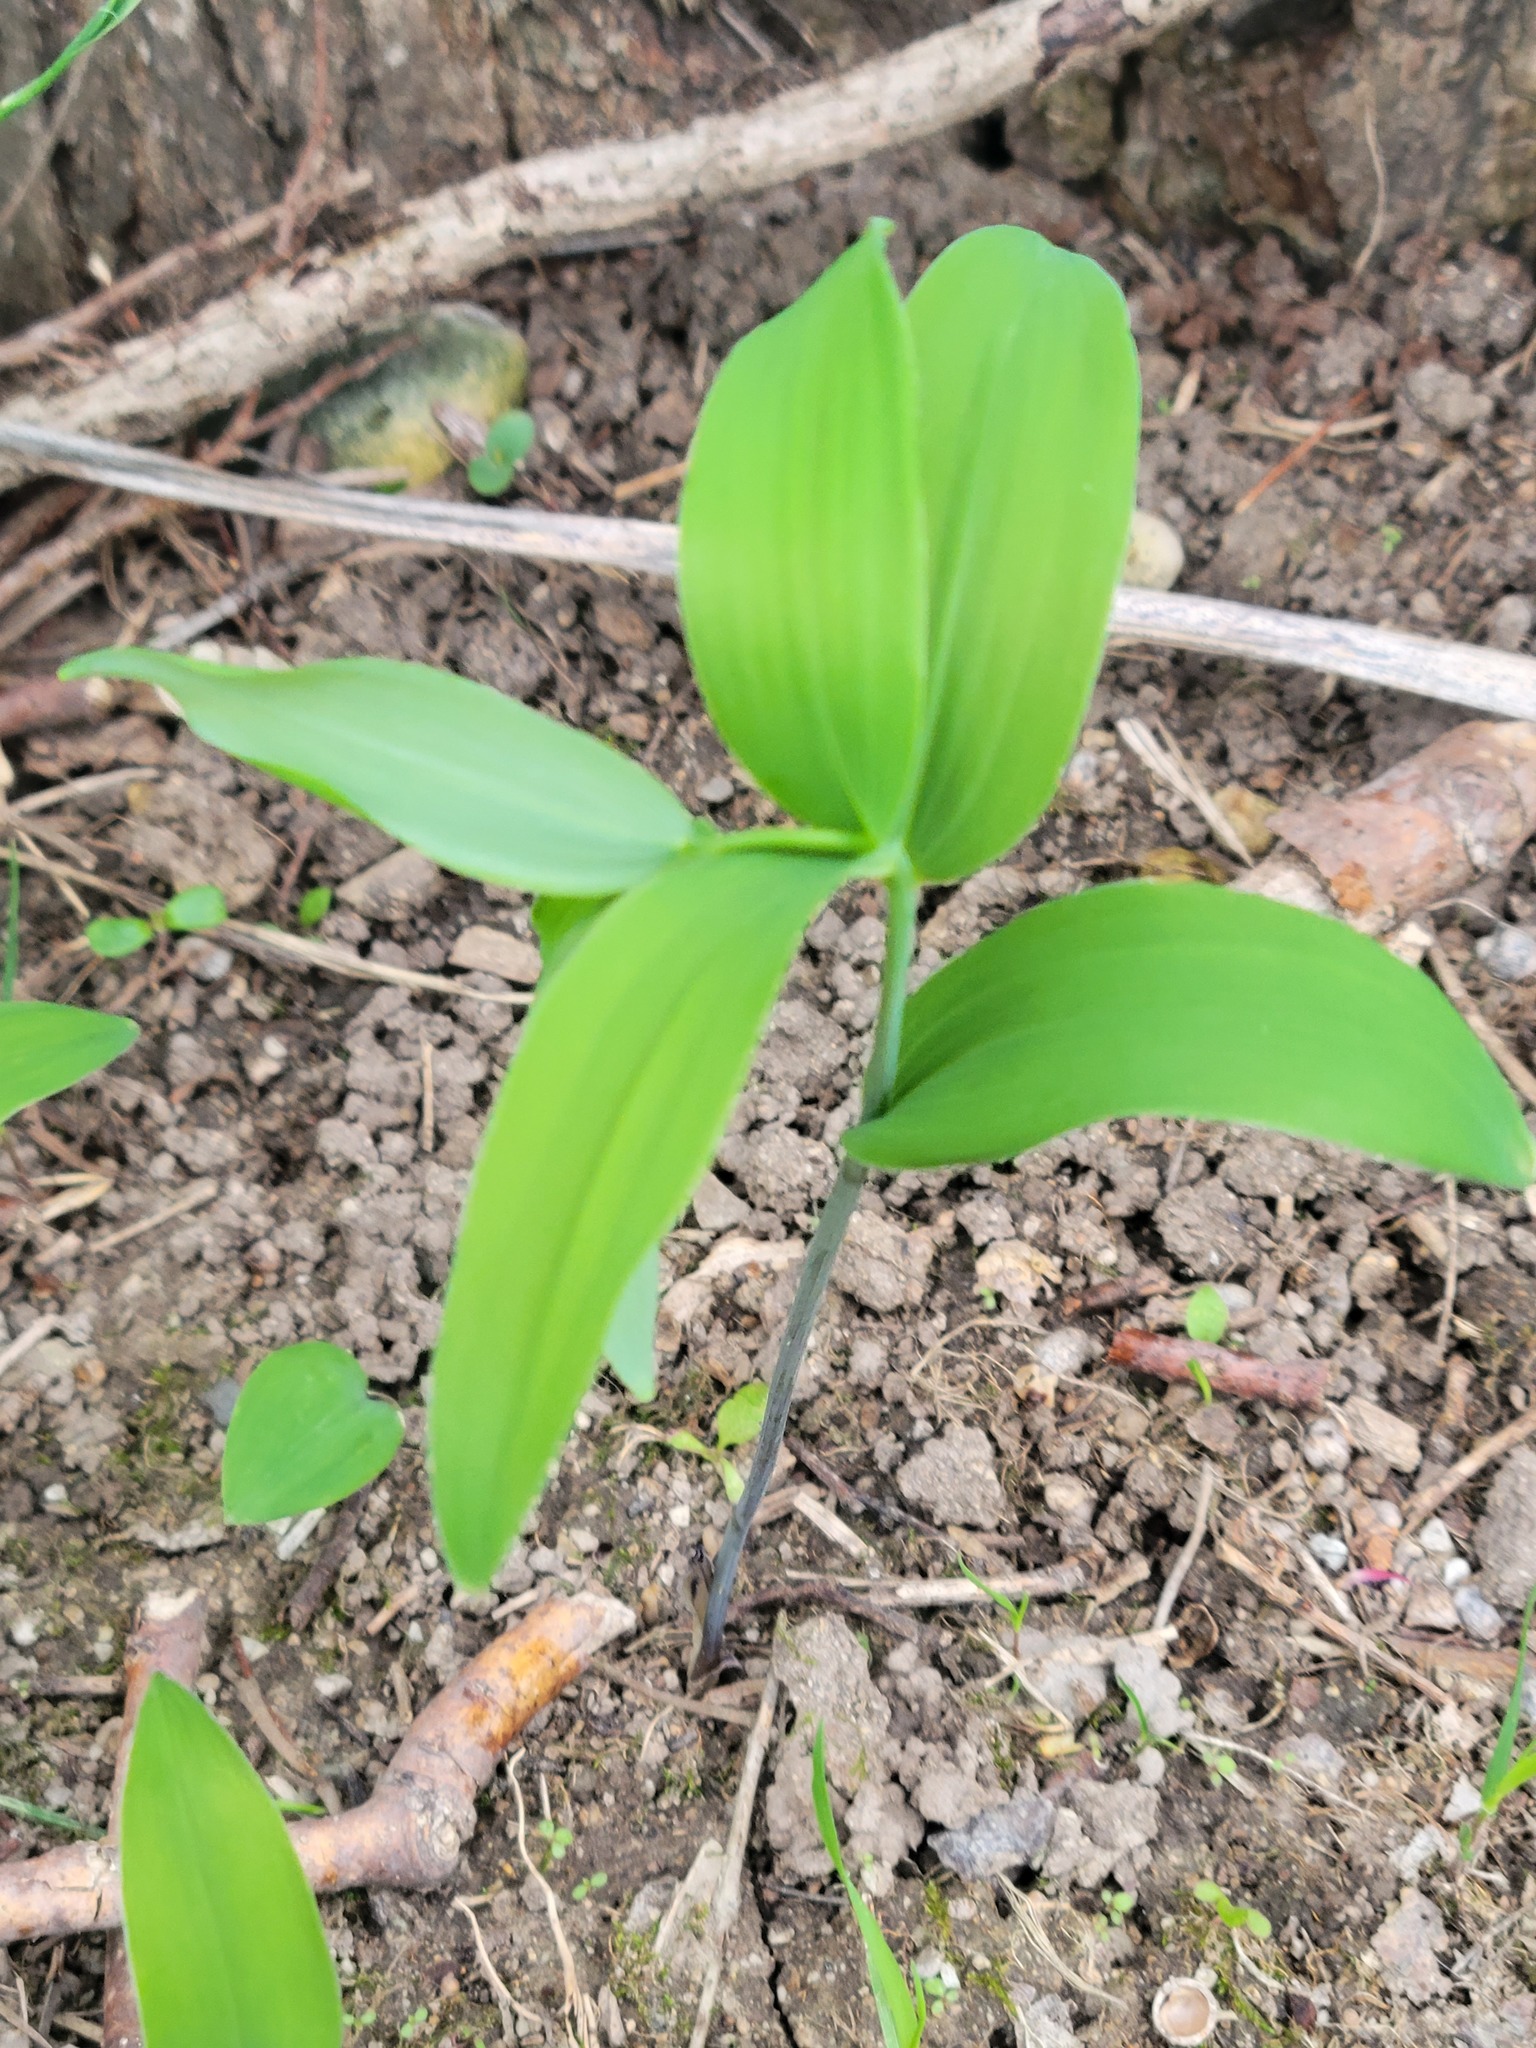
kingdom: Plantae
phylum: Tracheophyta
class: Liliopsida
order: Asparagales
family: Asparagaceae
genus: Polygonatum
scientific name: Polygonatum biflorum
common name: American solomon's-seal
